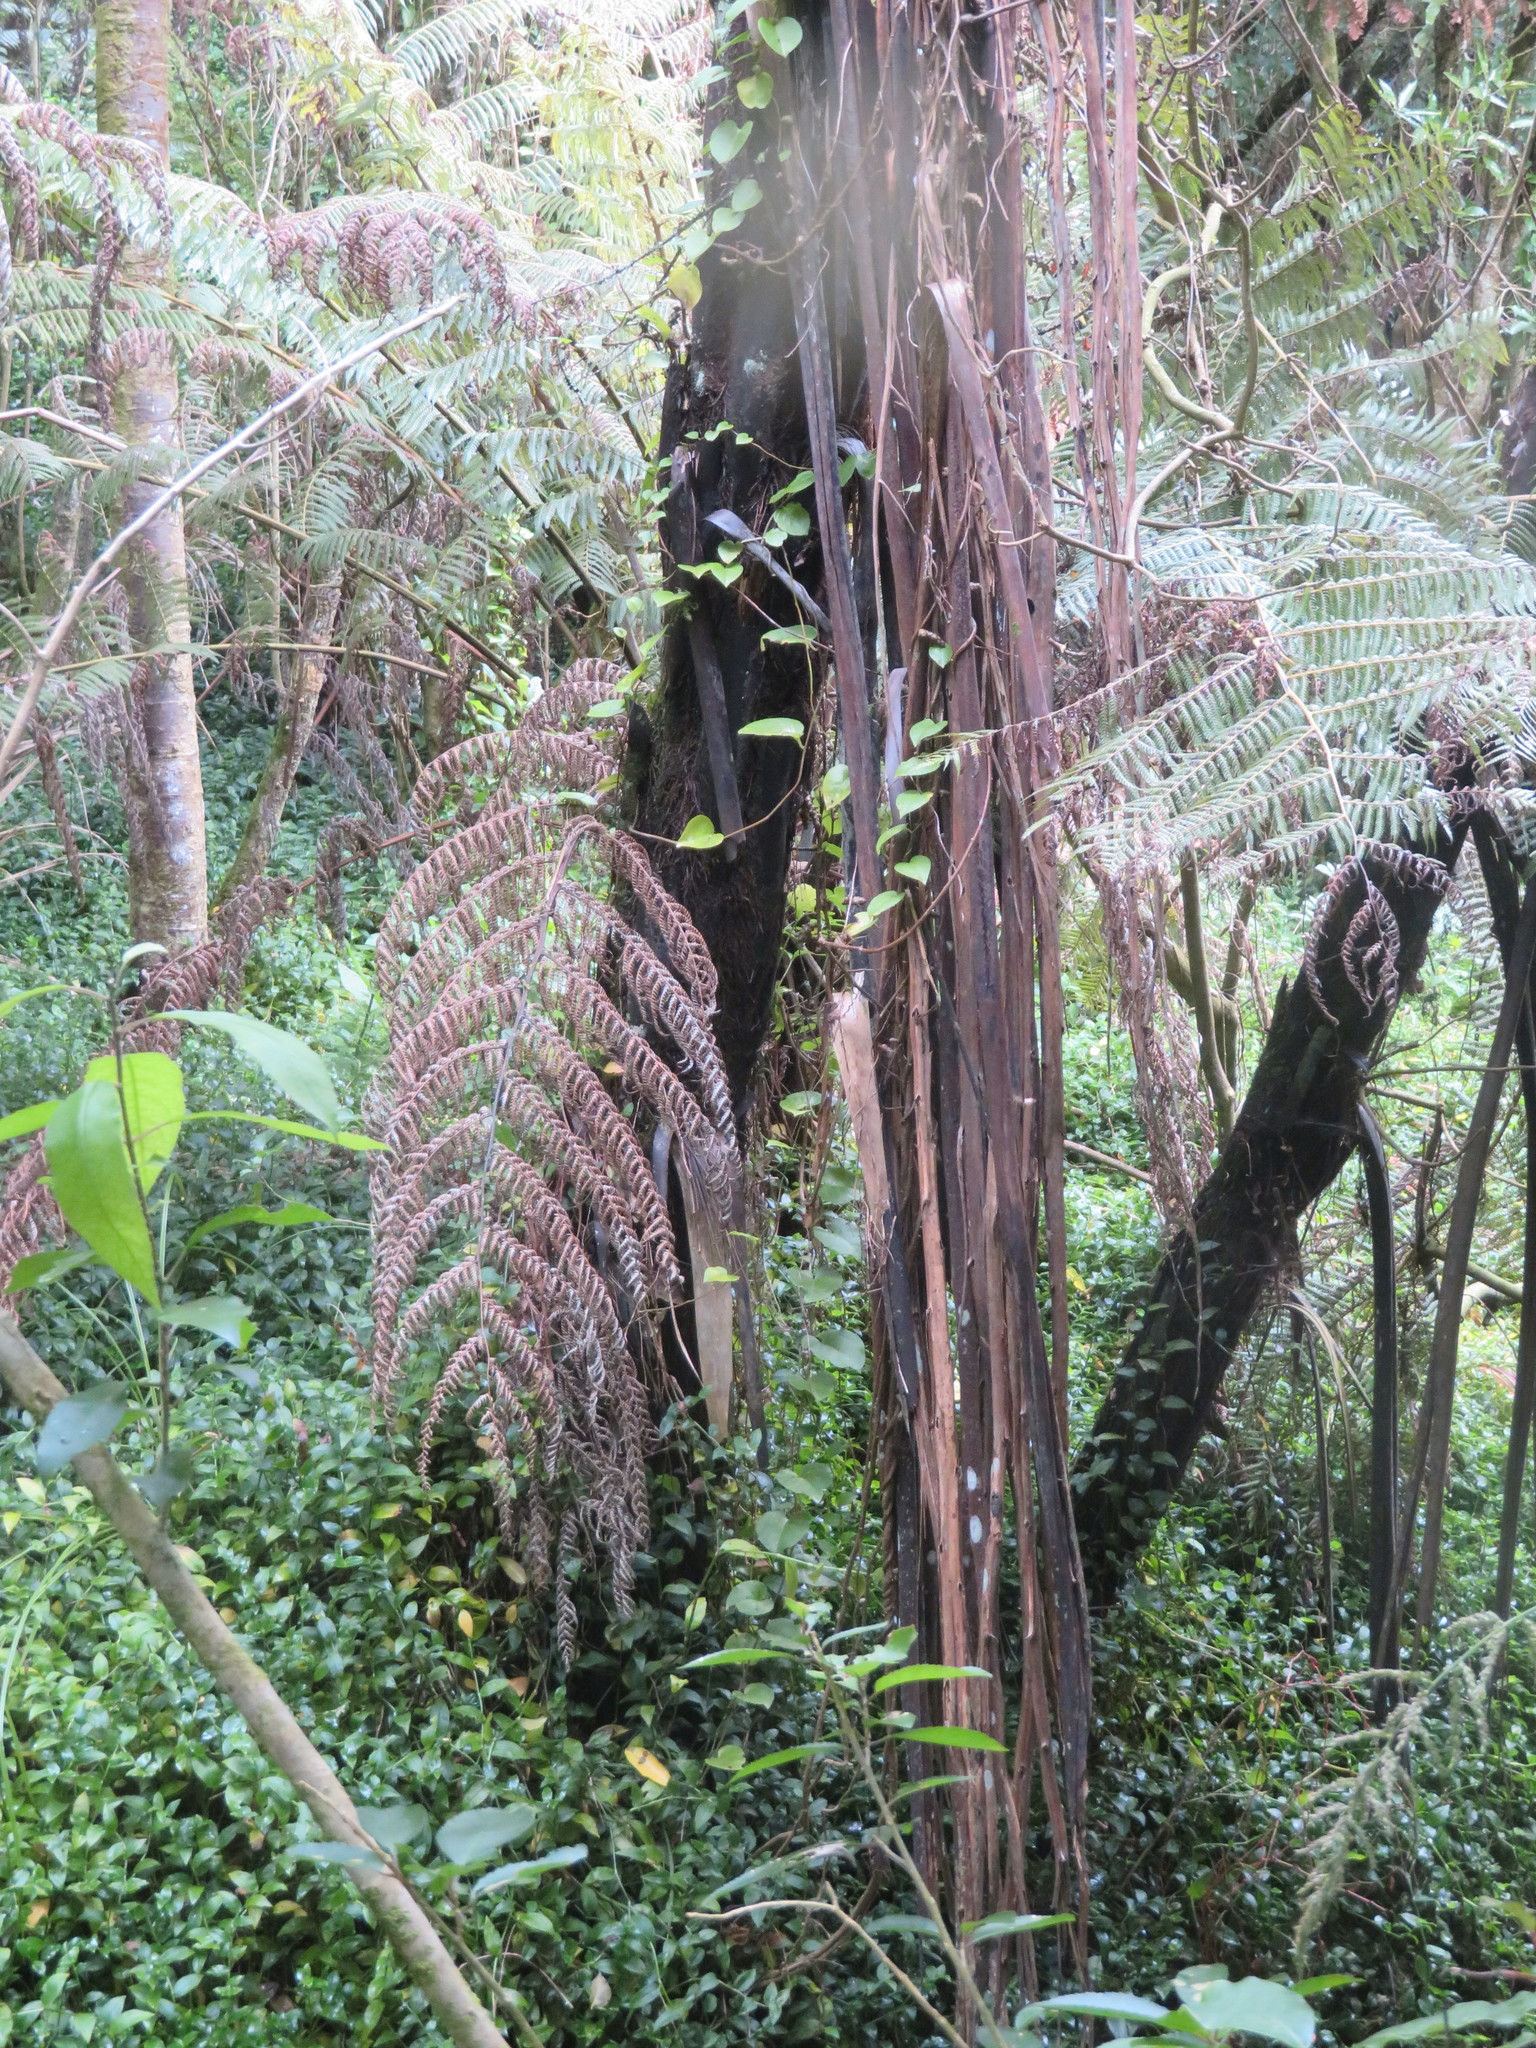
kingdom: Plantae
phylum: Tracheophyta
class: Magnoliopsida
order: Caryophyllales
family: Basellaceae
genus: Anredera
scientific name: Anredera cordifolia
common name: Heartleaf madeiravine
